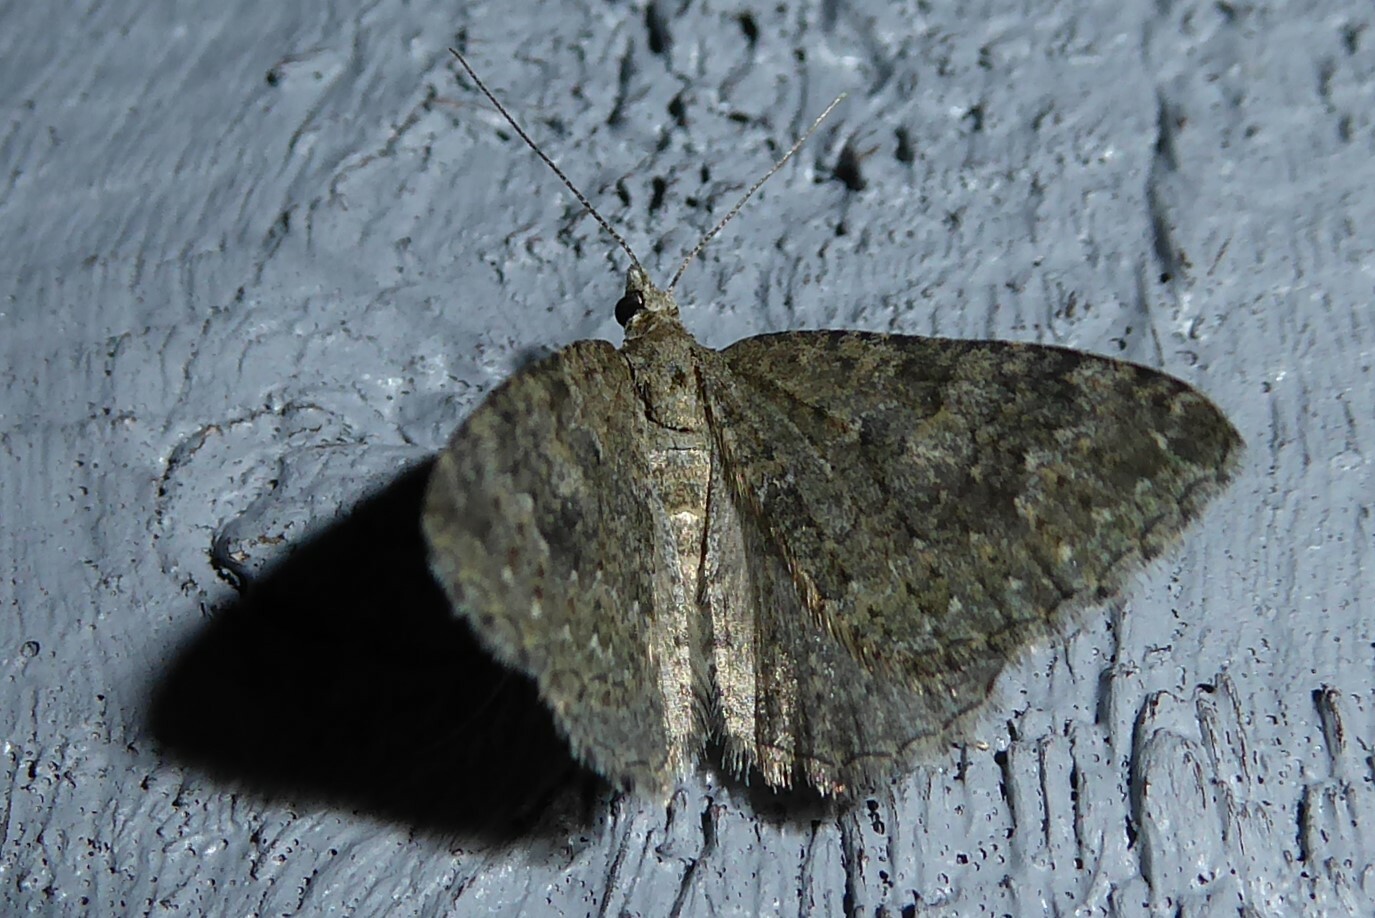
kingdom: Animalia
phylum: Arthropoda
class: Insecta
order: Lepidoptera
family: Geometridae
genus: Helastia
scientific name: Helastia corcularia
